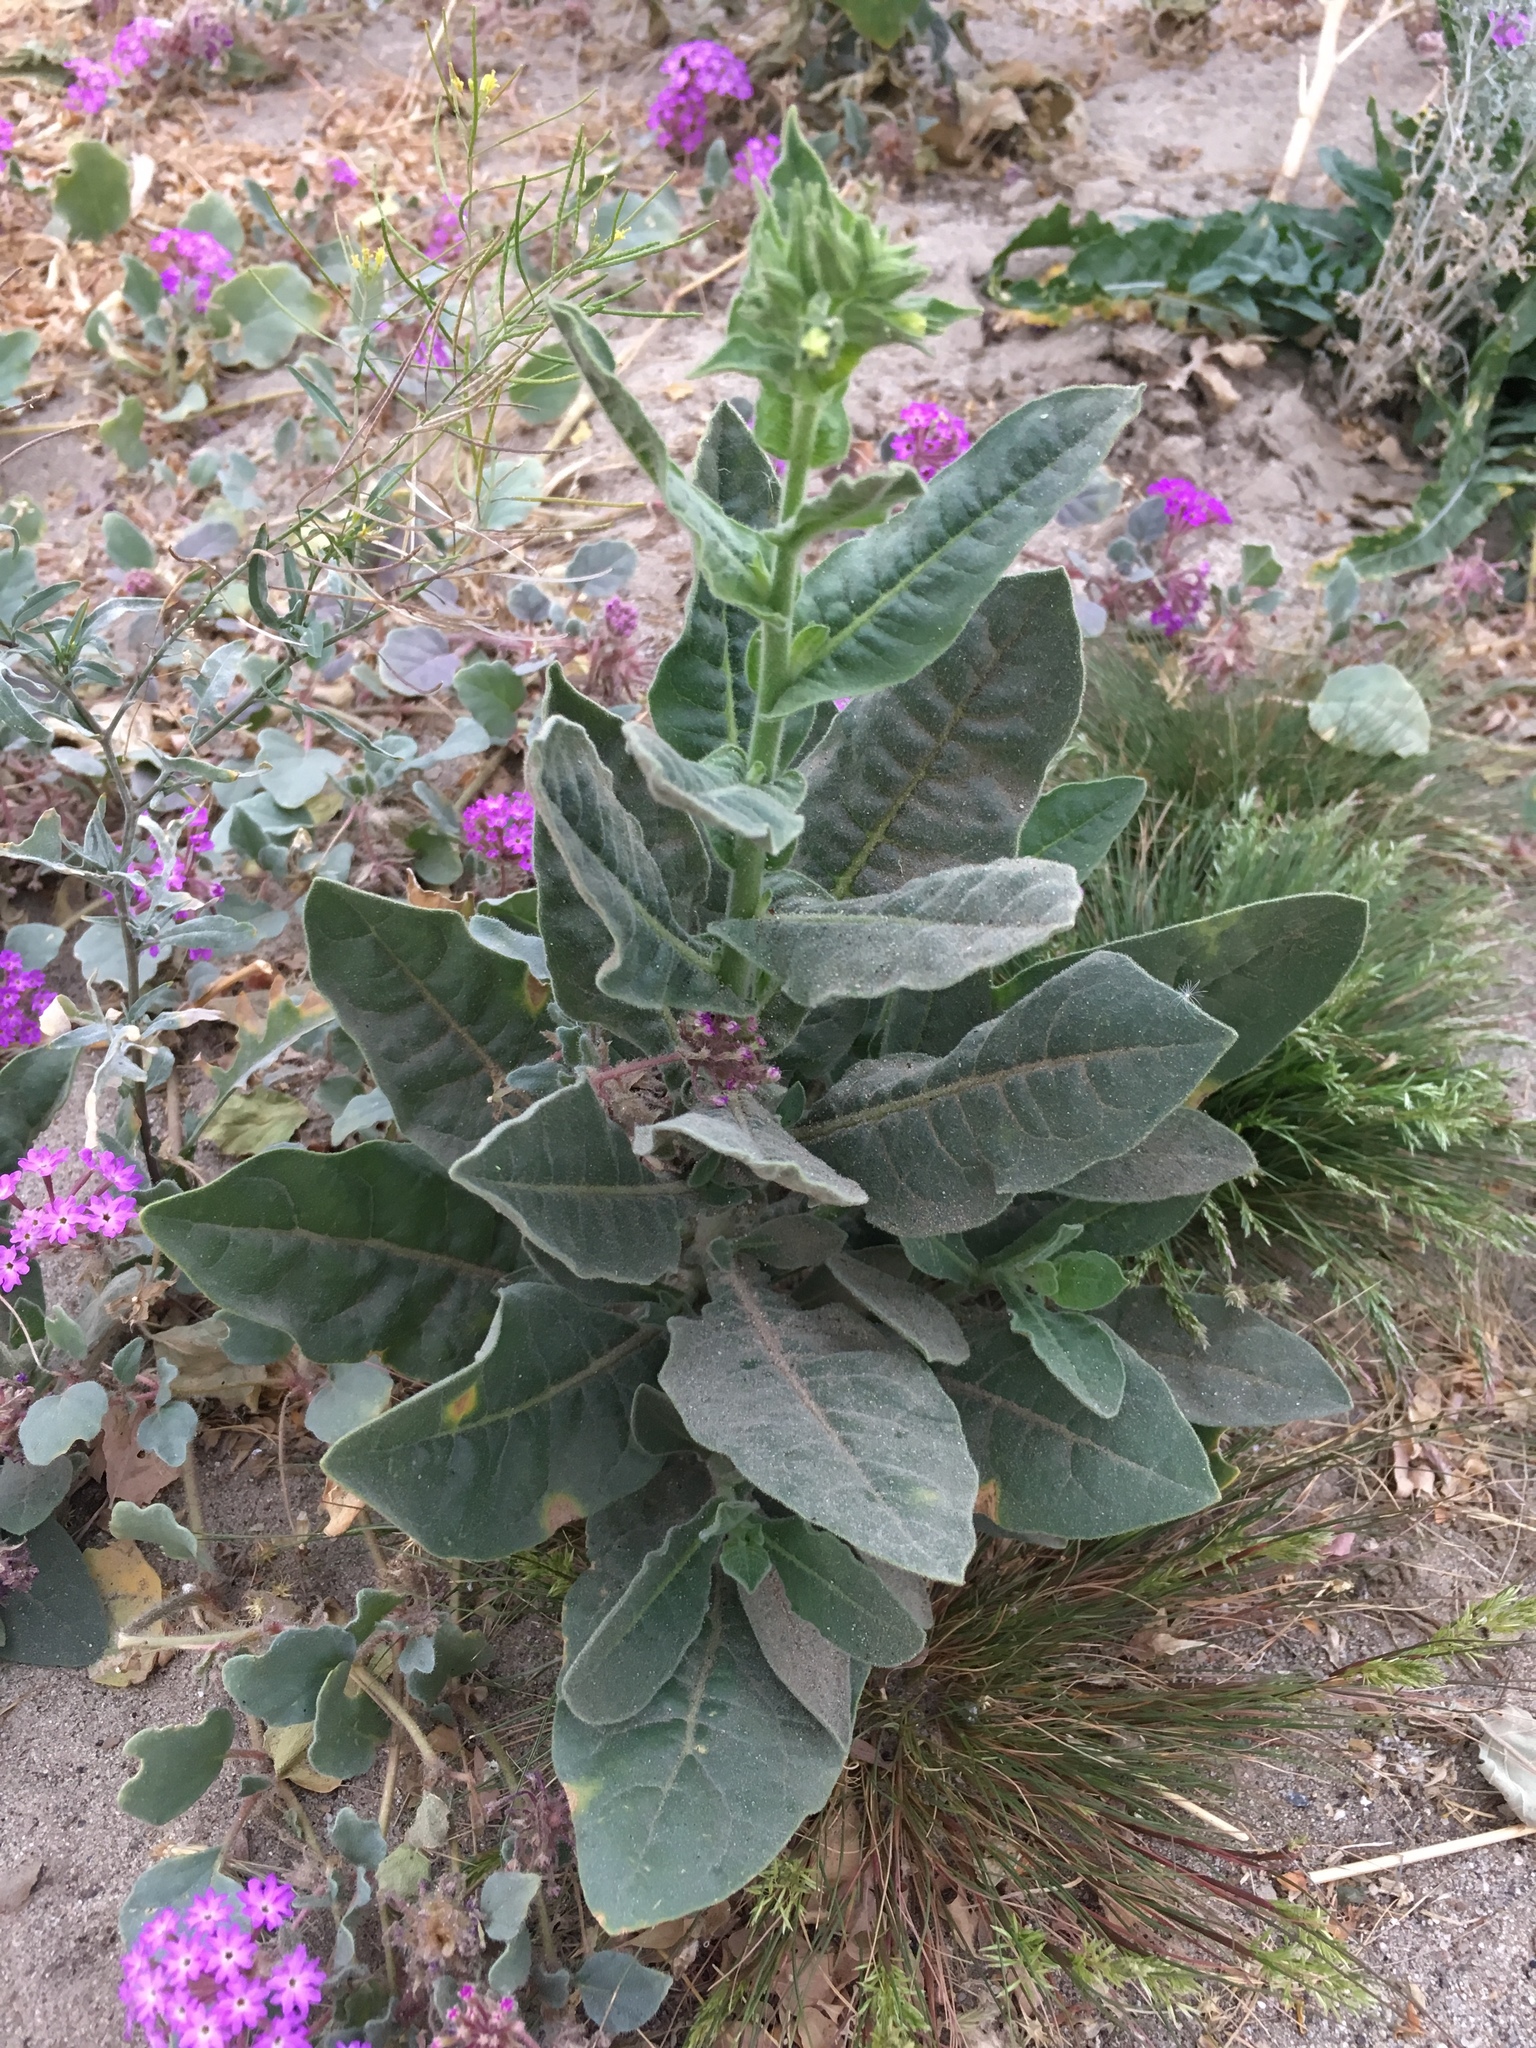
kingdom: Plantae
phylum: Tracheophyta
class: Magnoliopsida
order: Solanales
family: Solanaceae
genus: Nicotiana
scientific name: Nicotiana obtusifolia
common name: Desert tobacco
